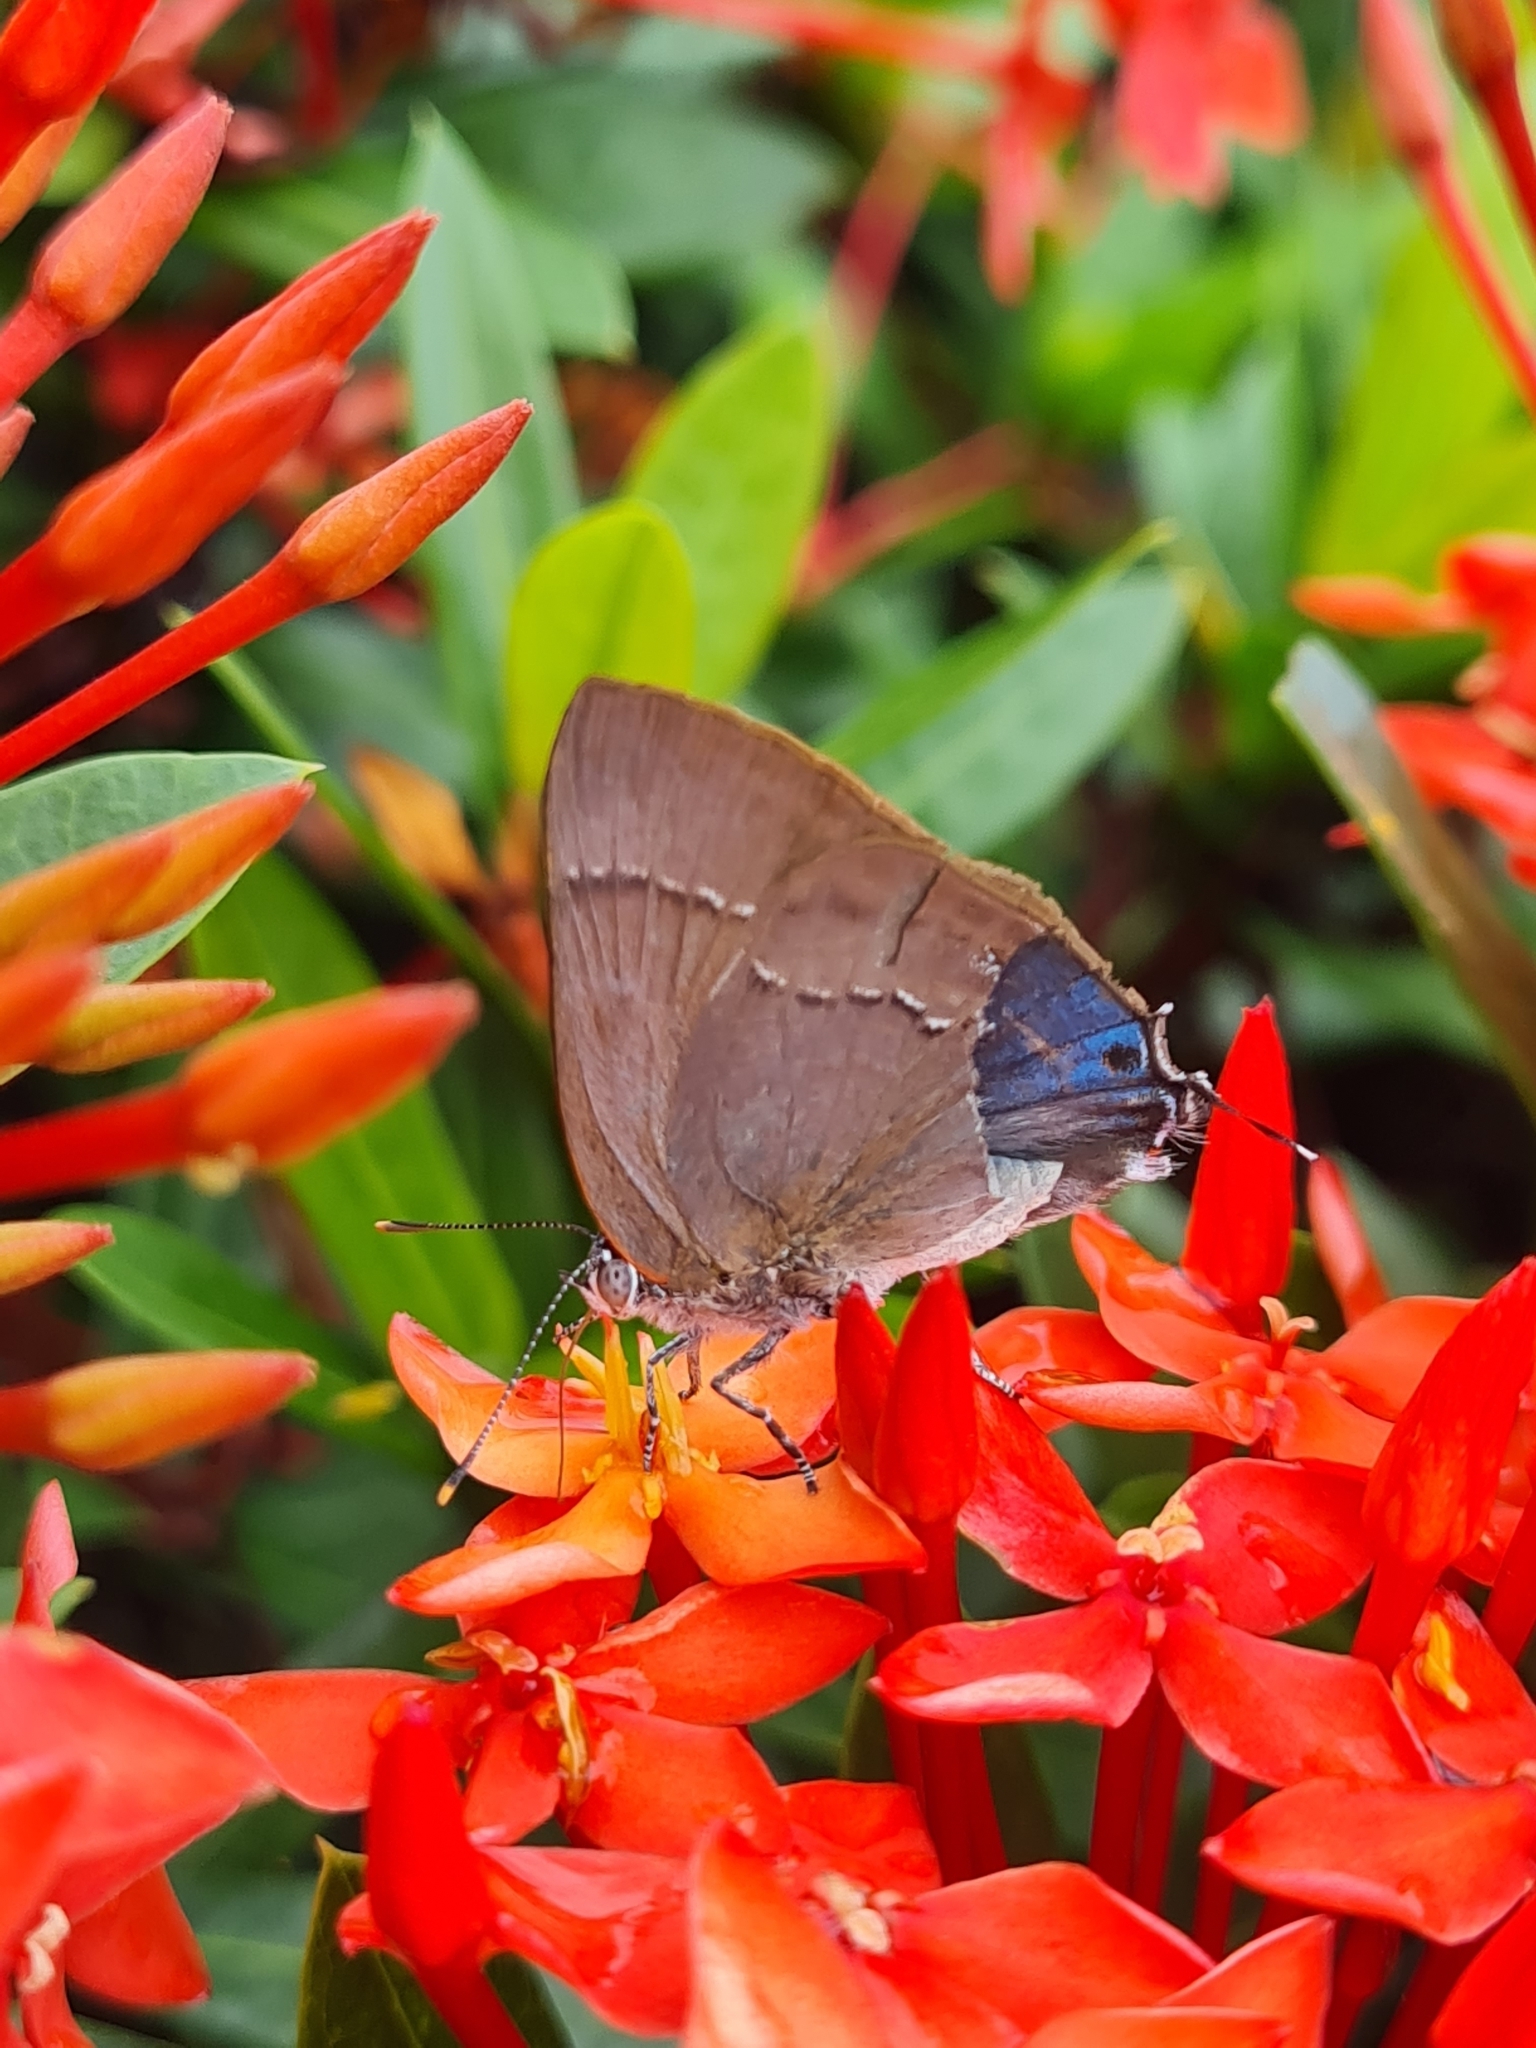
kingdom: Animalia
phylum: Arthropoda
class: Insecta
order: Lepidoptera
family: Lycaenidae
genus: Thecla
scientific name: Thecla marius
